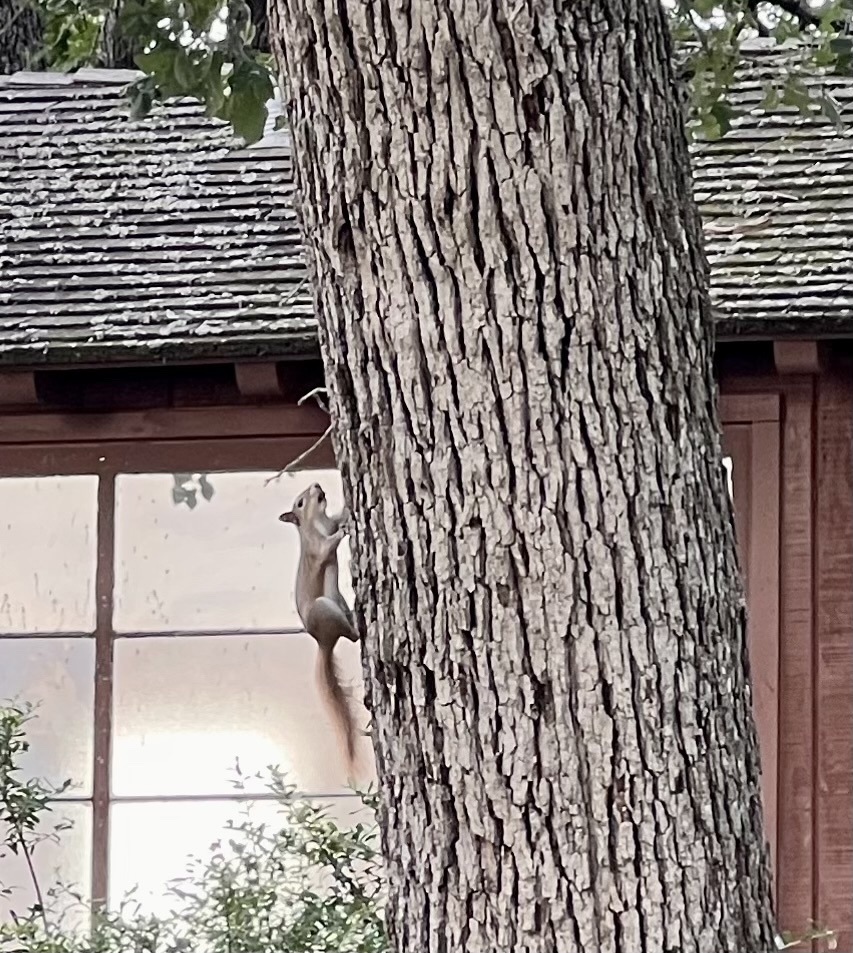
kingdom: Animalia
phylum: Chordata
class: Mammalia
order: Rodentia
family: Sciuridae
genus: Sciurus
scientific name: Sciurus carolinensis
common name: Eastern gray squirrel
